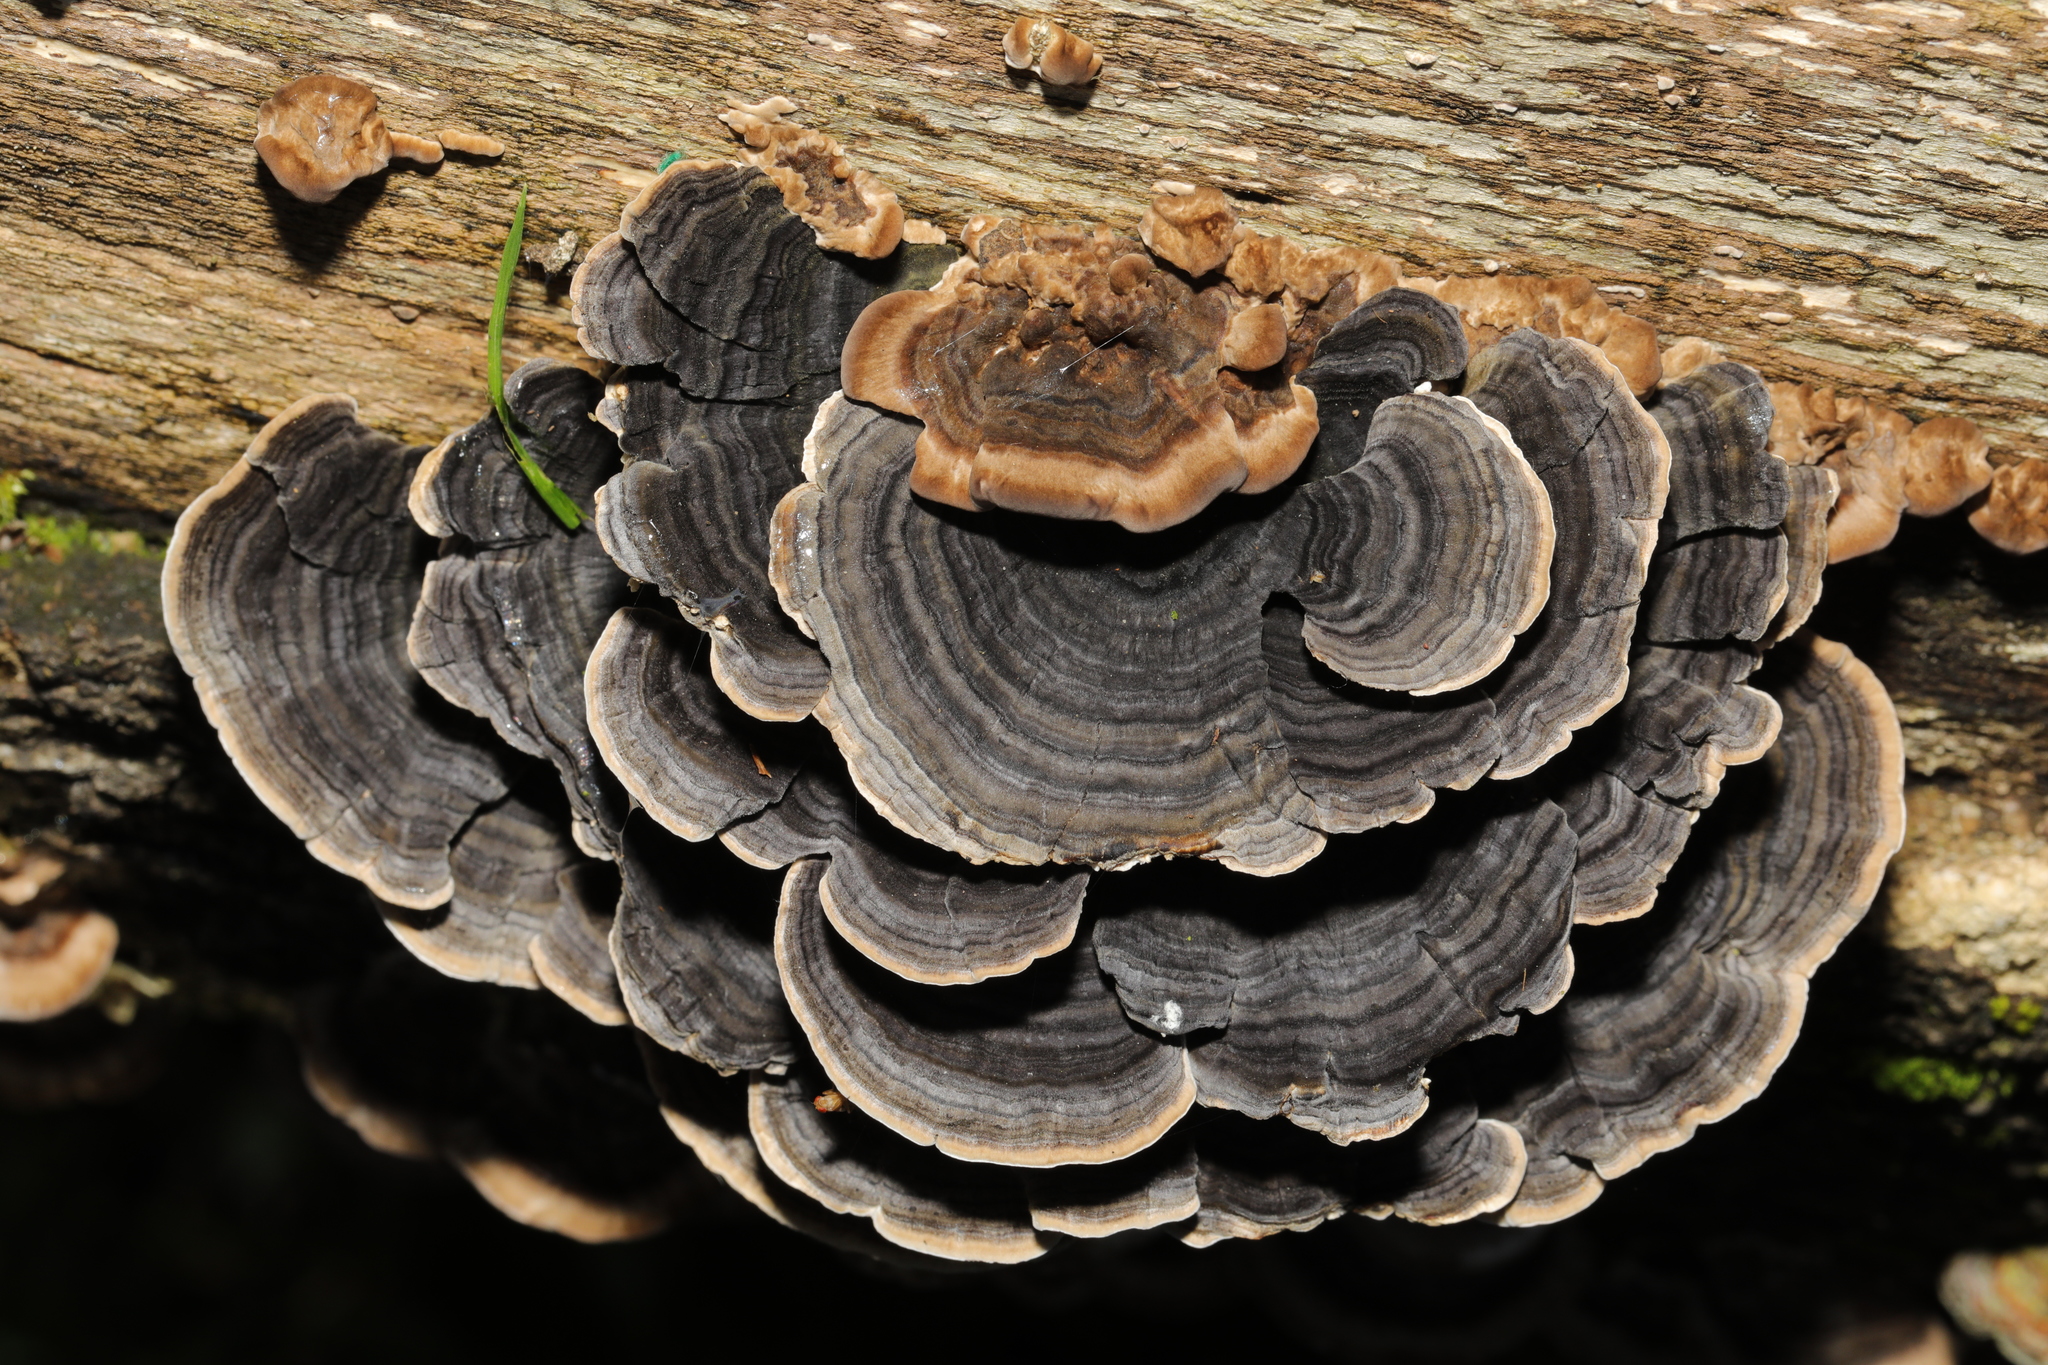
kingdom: Fungi
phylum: Basidiomycota
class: Agaricomycetes
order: Polyporales
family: Polyporaceae
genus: Trametes
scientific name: Trametes versicolor
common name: Turkeytail
